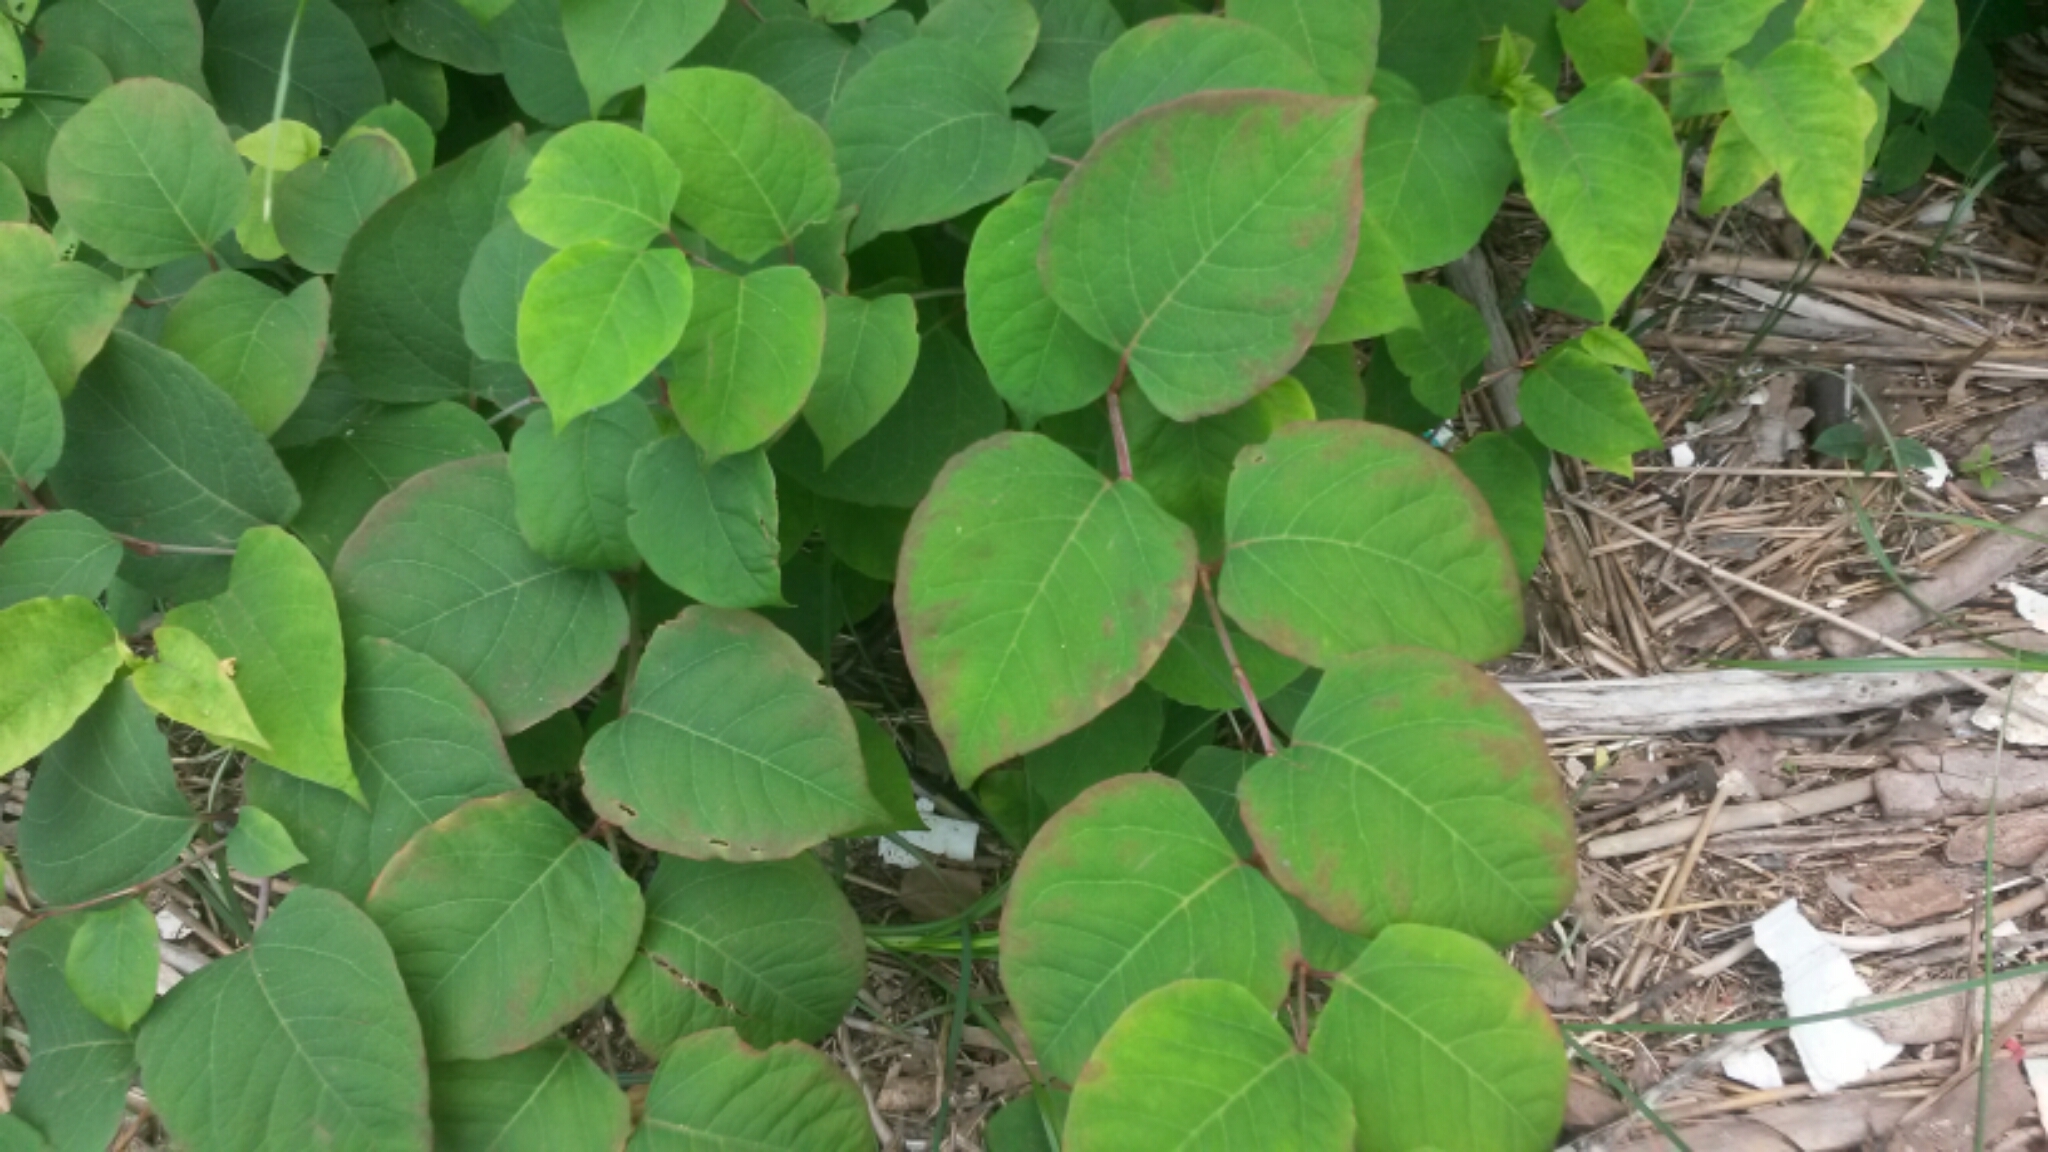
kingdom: Plantae
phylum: Tracheophyta
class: Magnoliopsida
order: Caryophyllales
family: Polygonaceae
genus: Reynoutria
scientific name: Reynoutria
